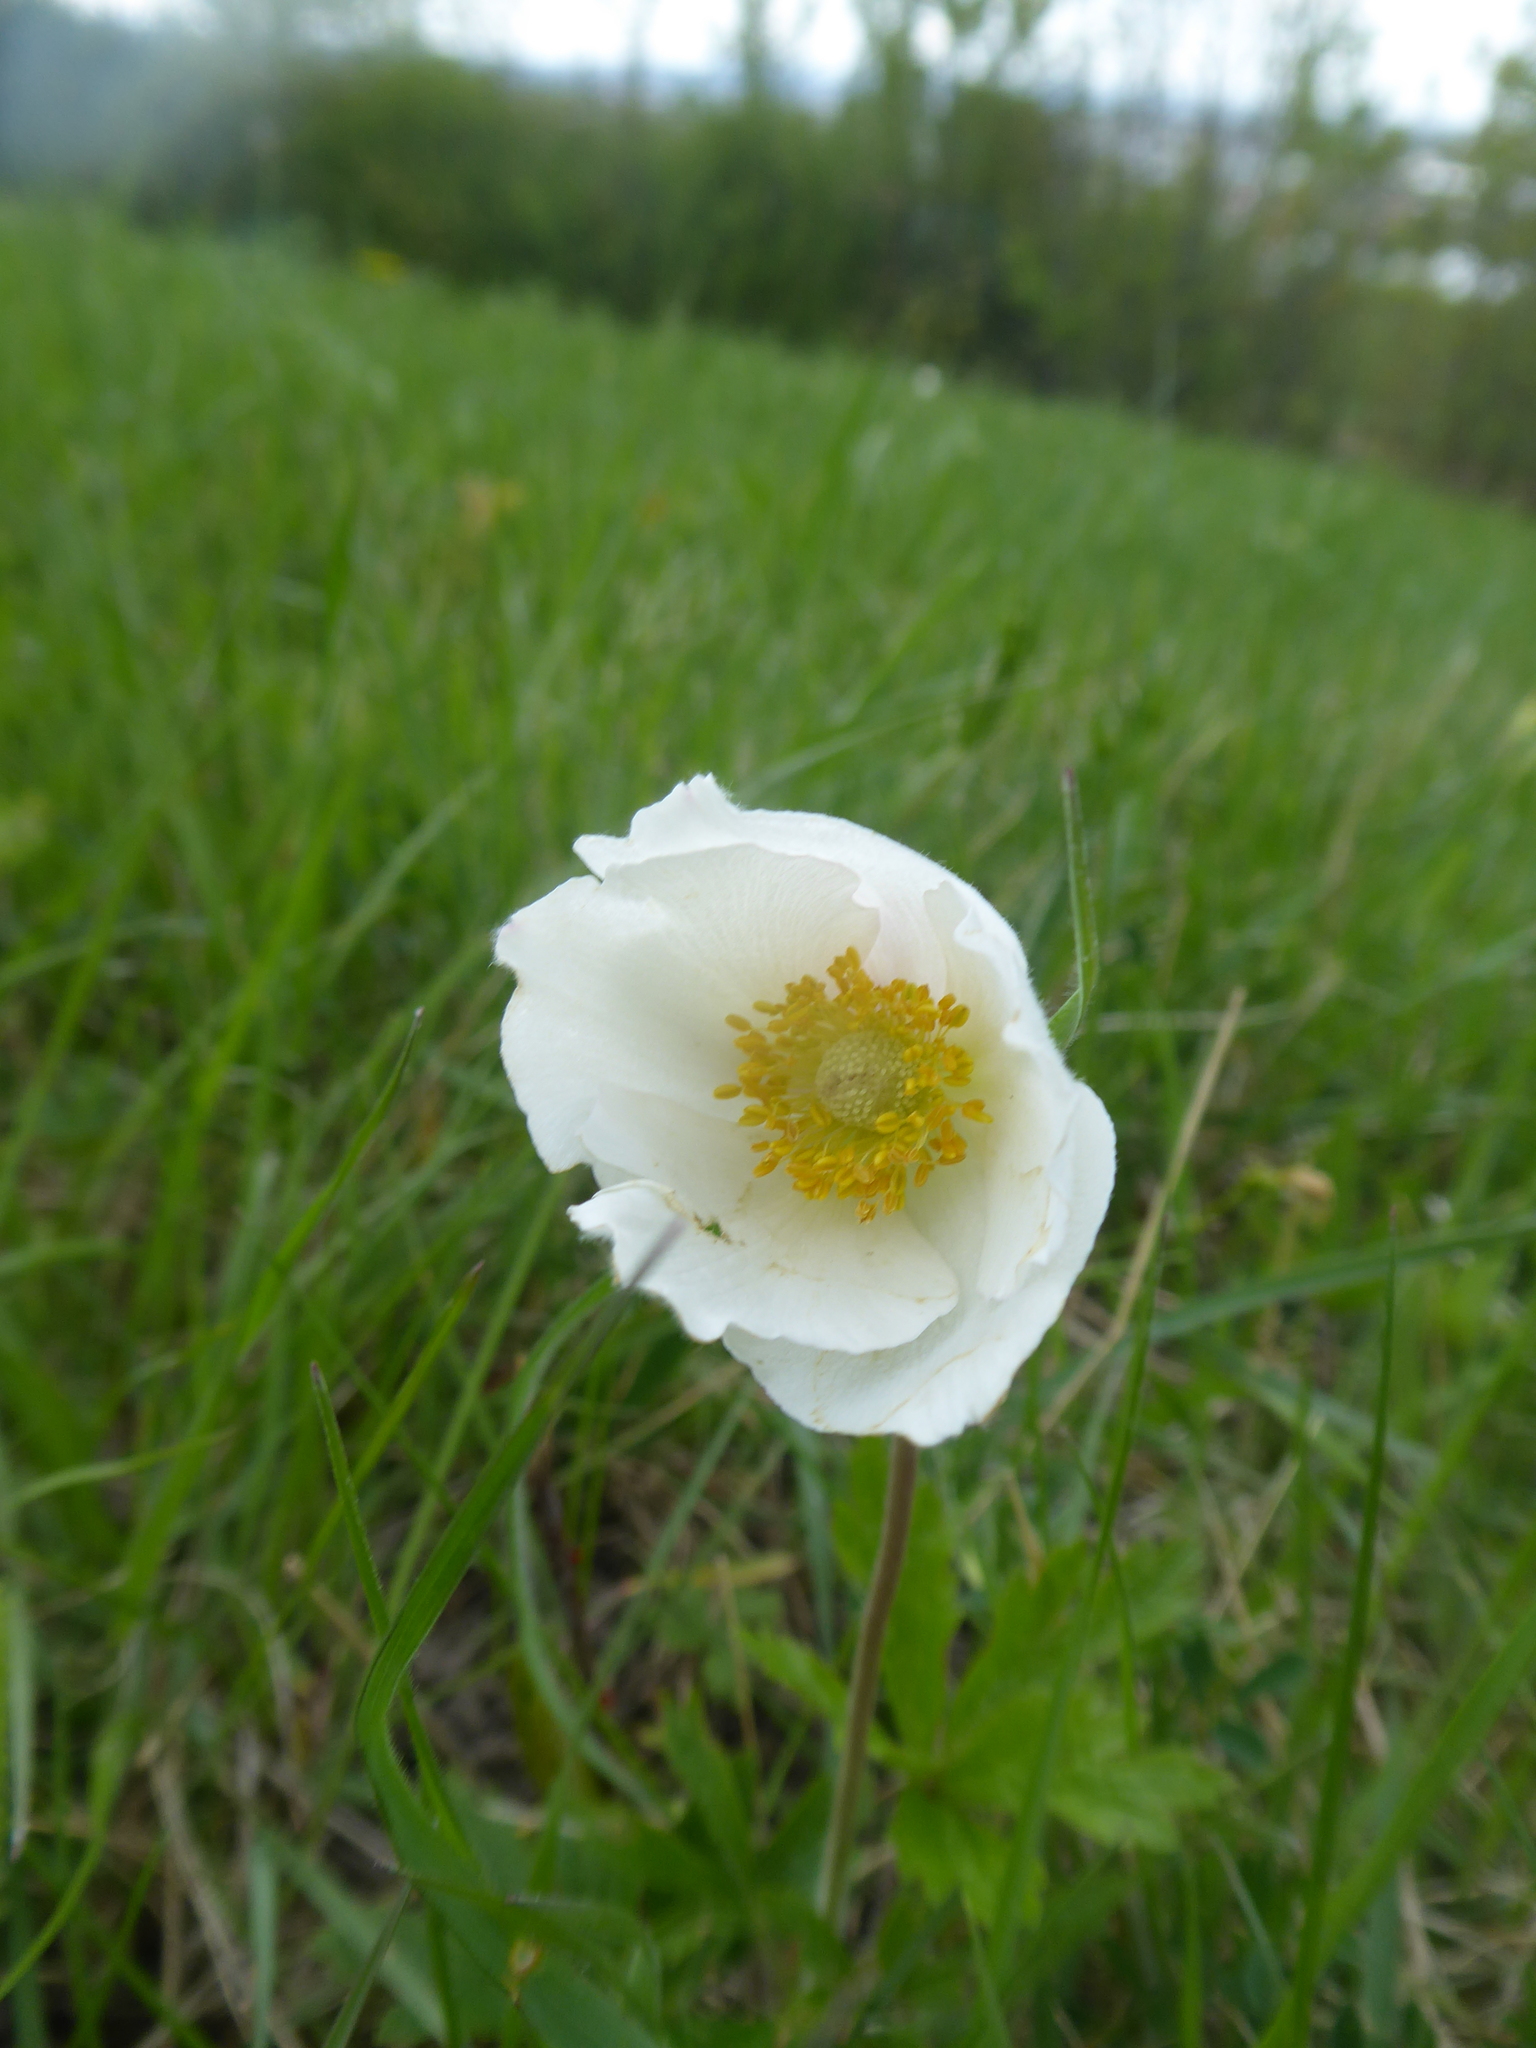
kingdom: Plantae
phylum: Tracheophyta
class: Magnoliopsida
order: Ranunculales
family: Ranunculaceae
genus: Anemone
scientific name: Anemone sylvestris
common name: Snowdrop anemone
